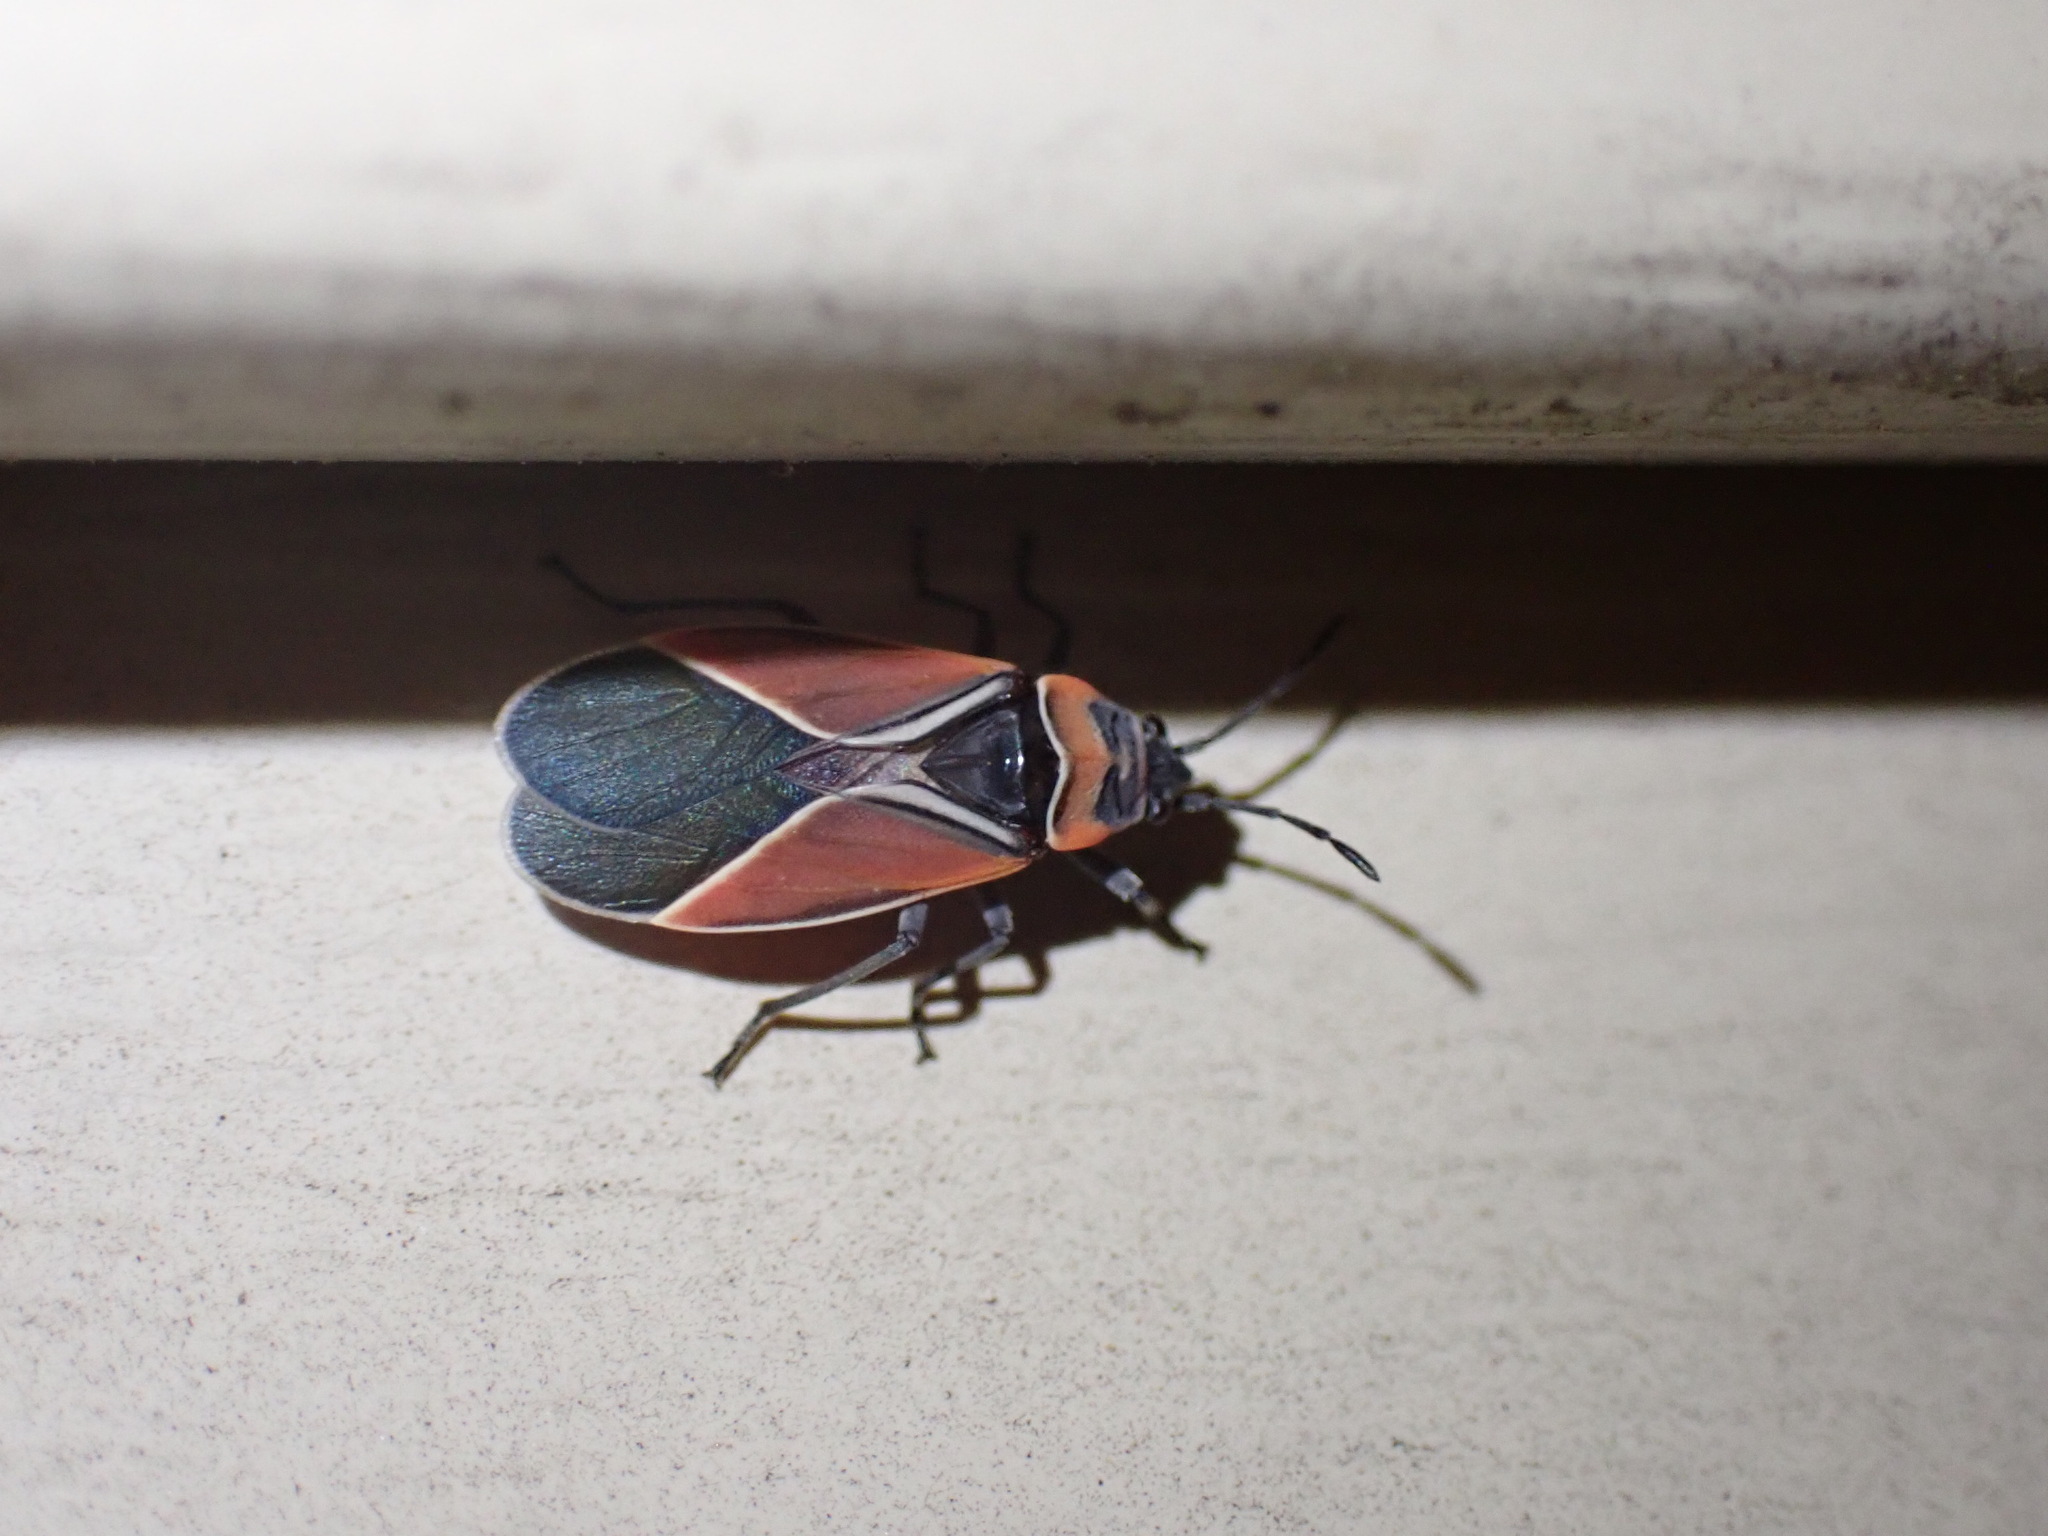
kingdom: Animalia
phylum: Arthropoda
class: Insecta
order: Hemiptera
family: Lygaeidae
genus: Neacoryphus
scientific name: Neacoryphus bicrucis
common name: Lygaeid bug
